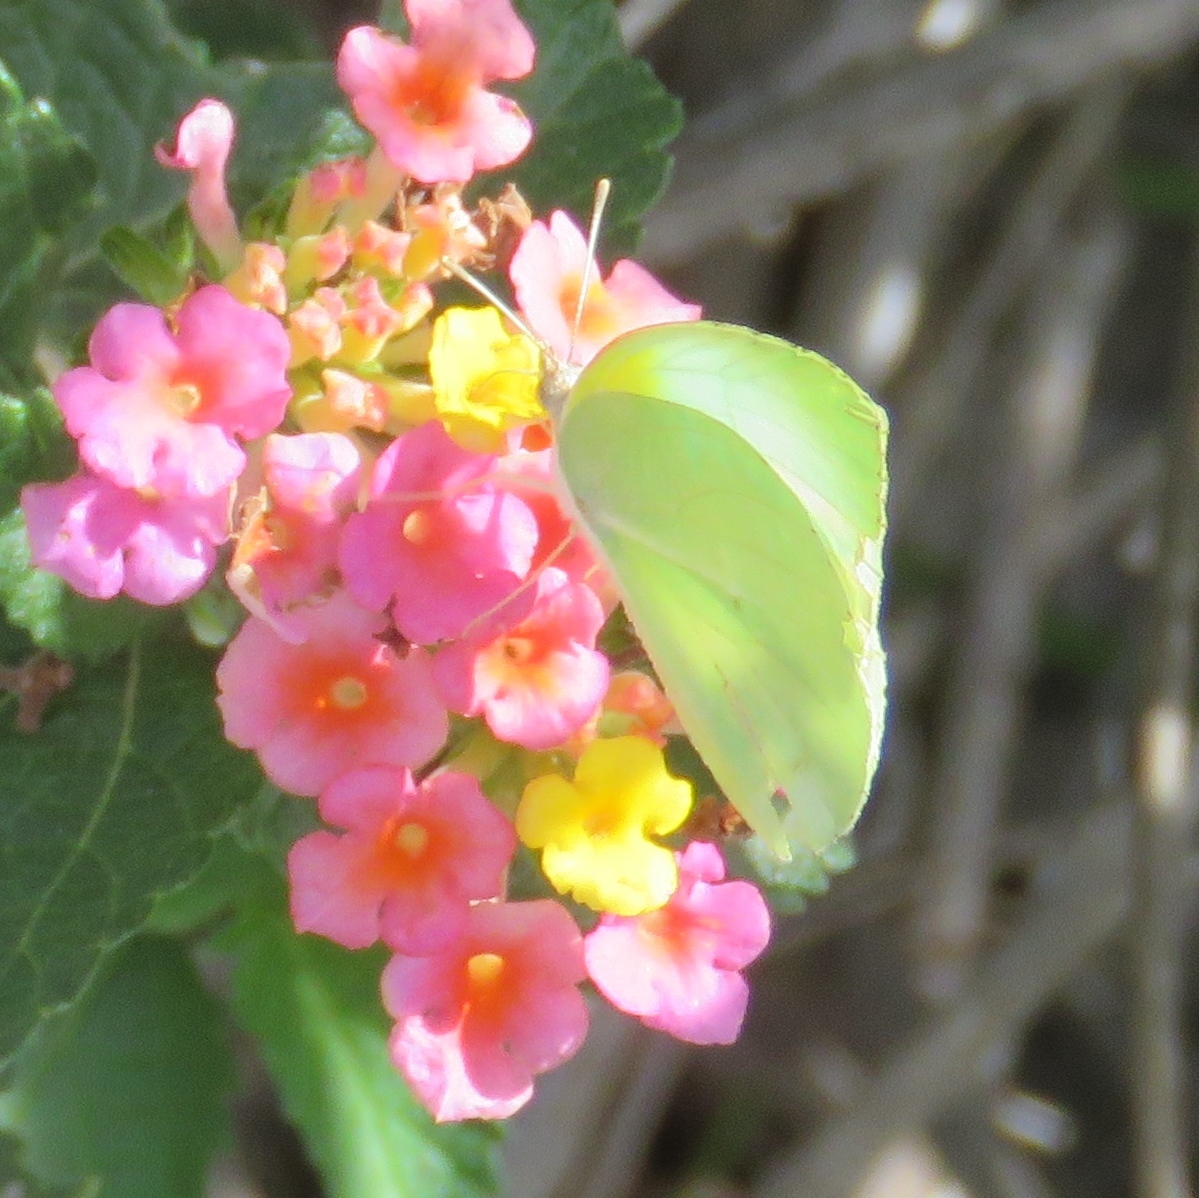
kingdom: Animalia
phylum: Arthropoda
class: Insecta
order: Lepidoptera
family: Pieridae
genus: Kricogonia
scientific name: Kricogonia lyside
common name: Guayacan sulphur,
